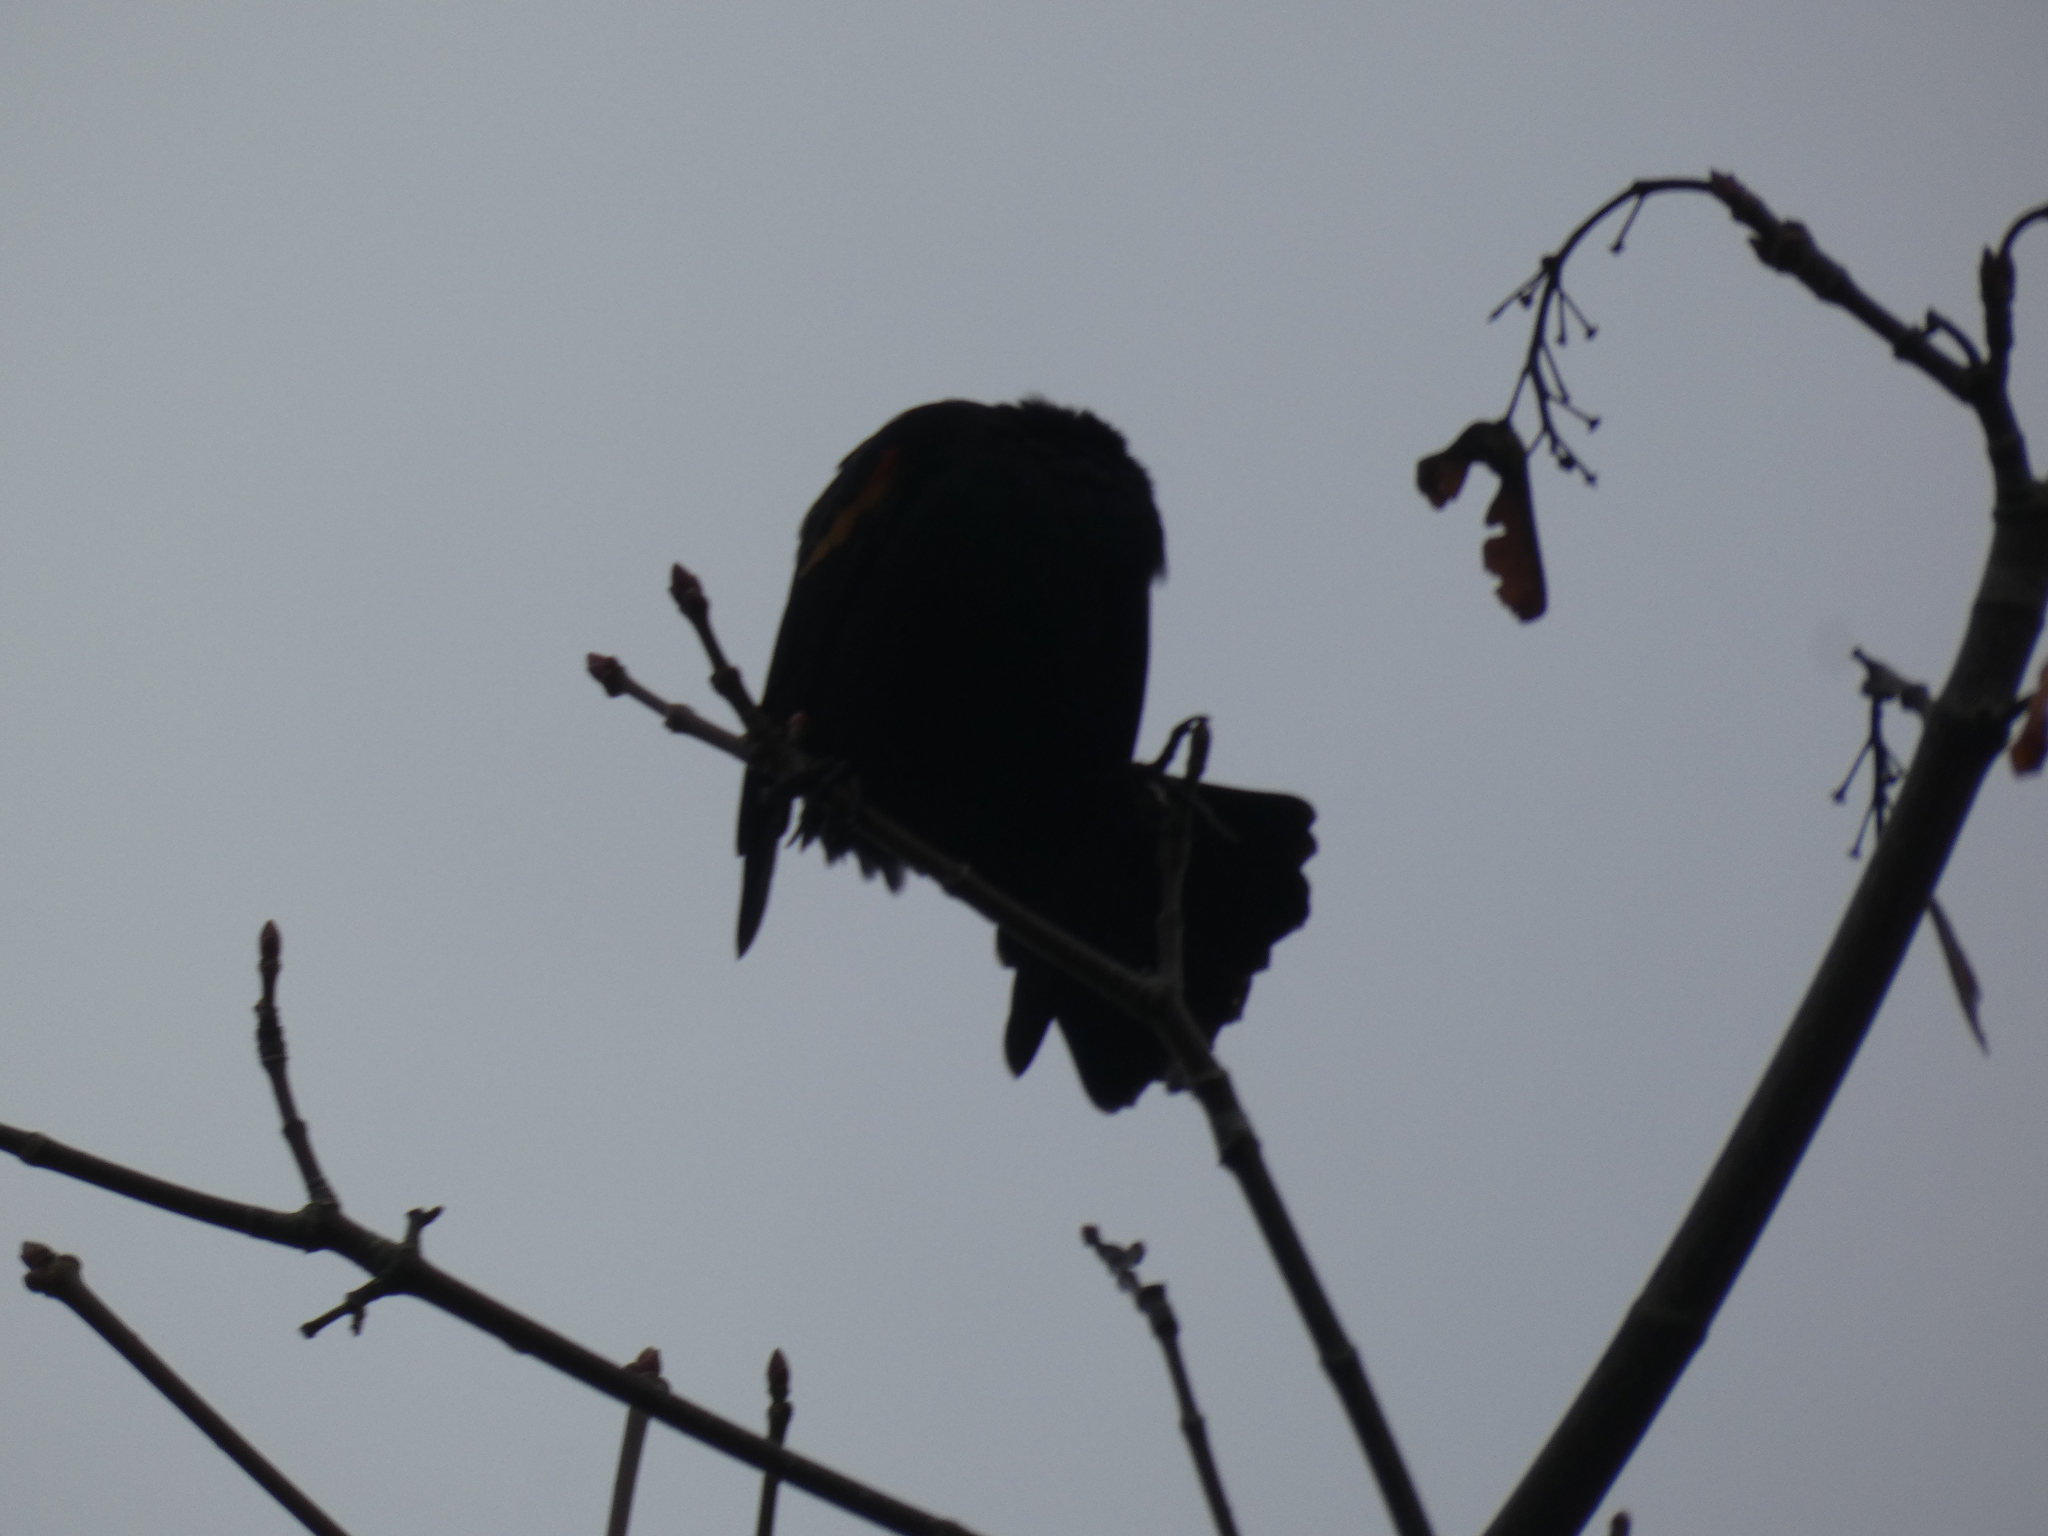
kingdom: Animalia
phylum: Chordata
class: Aves
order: Passeriformes
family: Icteridae
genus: Agelaius
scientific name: Agelaius phoeniceus
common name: Red-winged blackbird
